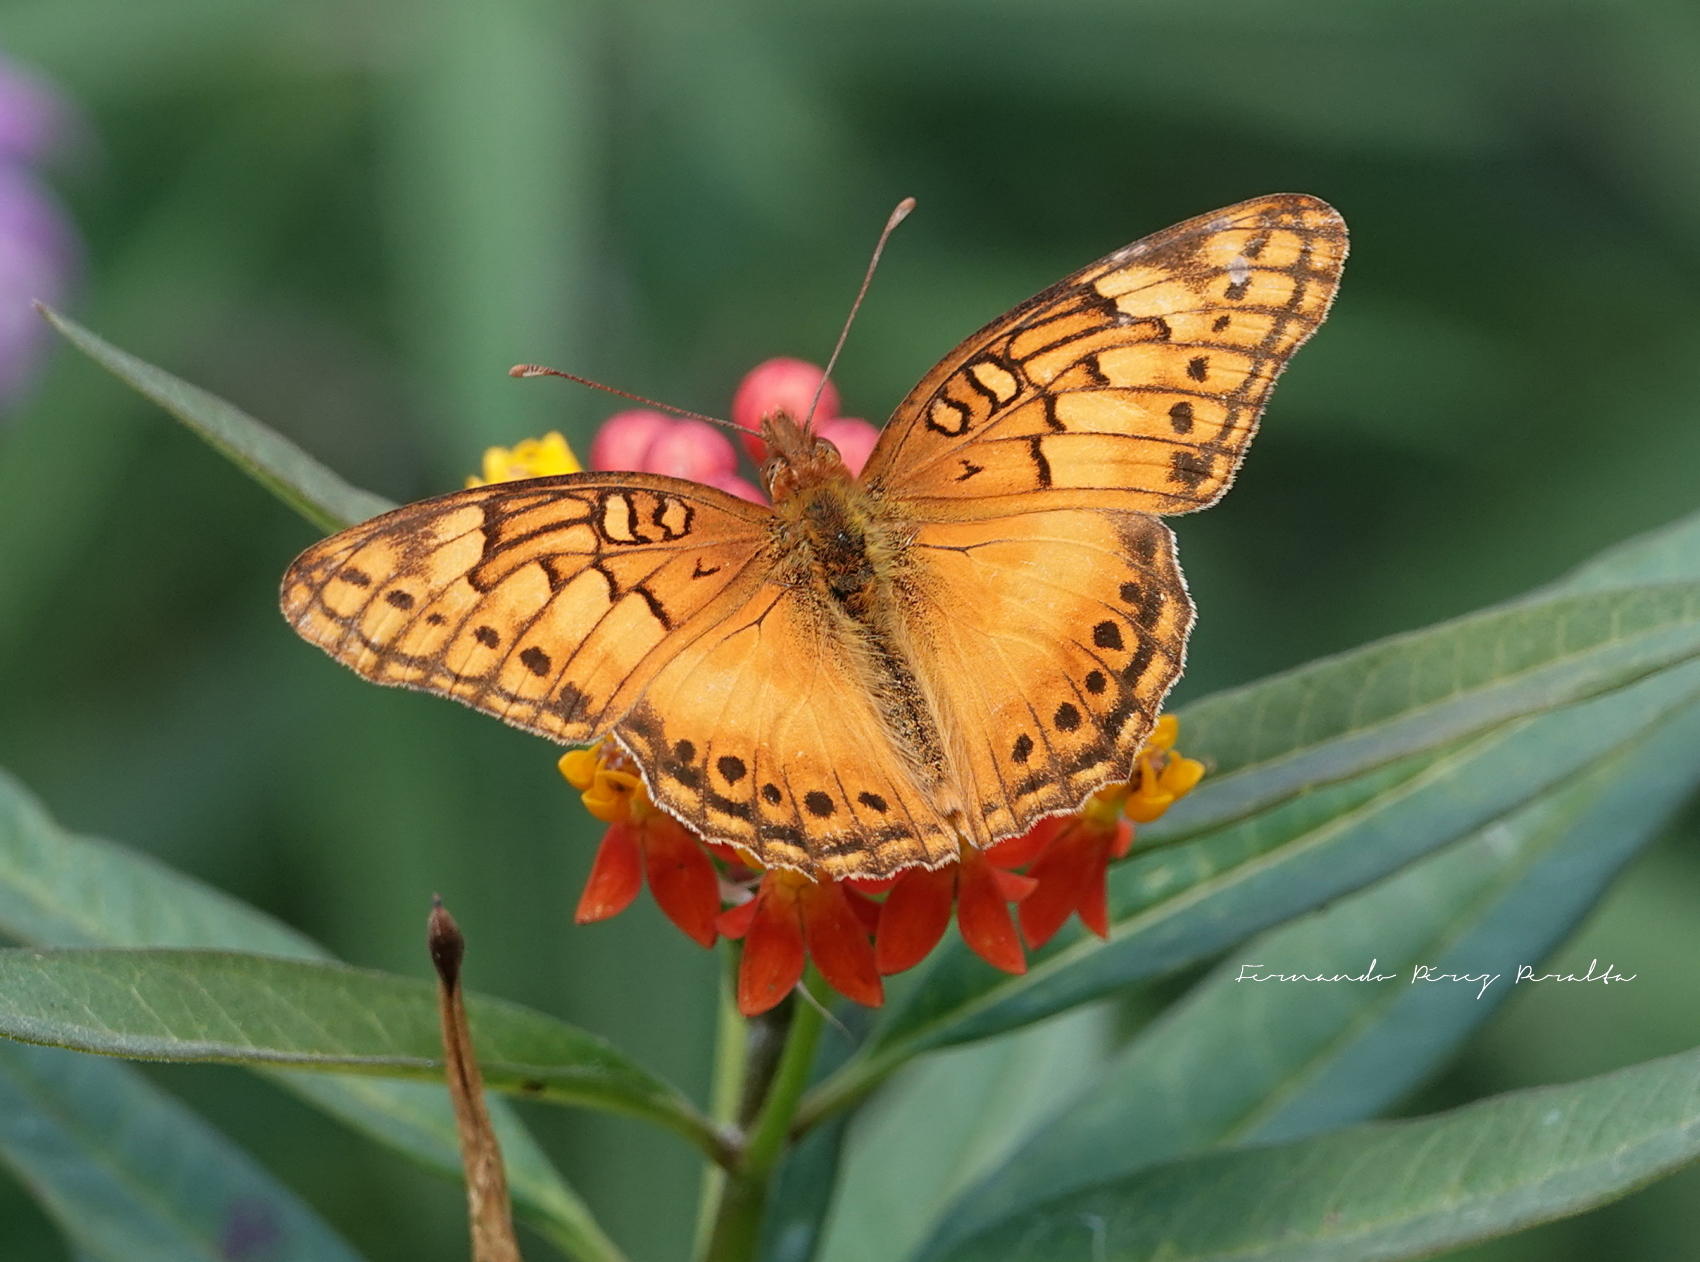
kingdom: Animalia
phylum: Arthropoda
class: Insecta
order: Lepidoptera
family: Nymphalidae
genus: Euptoieta
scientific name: Euptoieta hegesia
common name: Mexican fritillary
